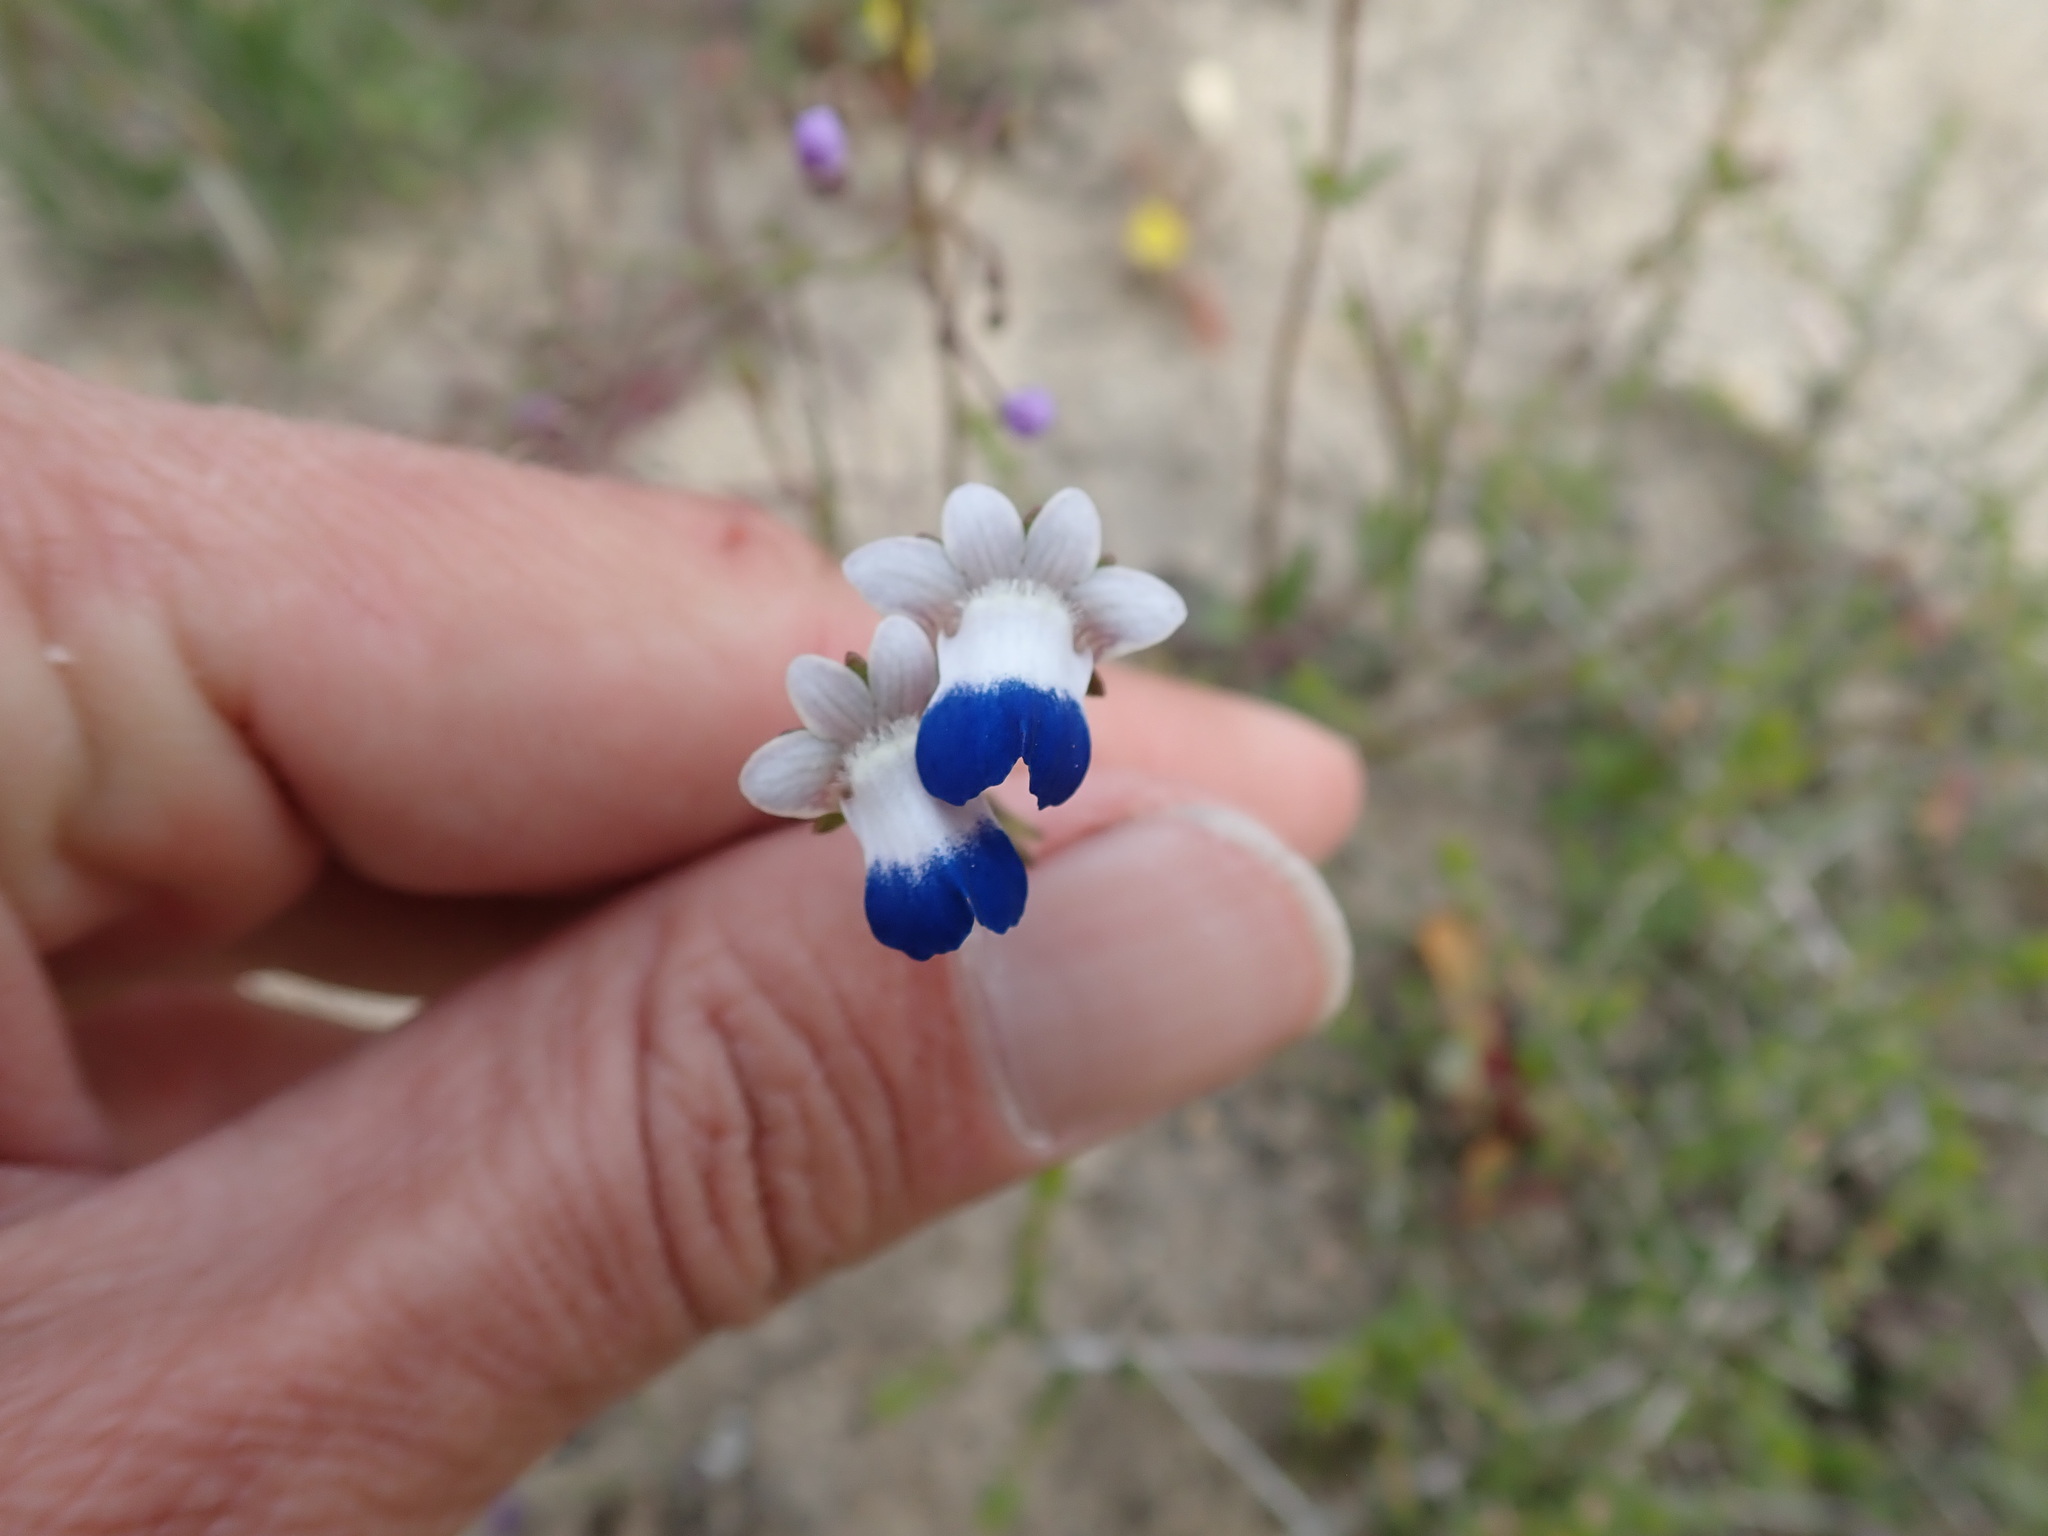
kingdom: Plantae
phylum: Tracheophyta
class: Magnoliopsida
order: Lamiales
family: Scrophulariaceae
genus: Nemesia
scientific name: Nemesia barbata
